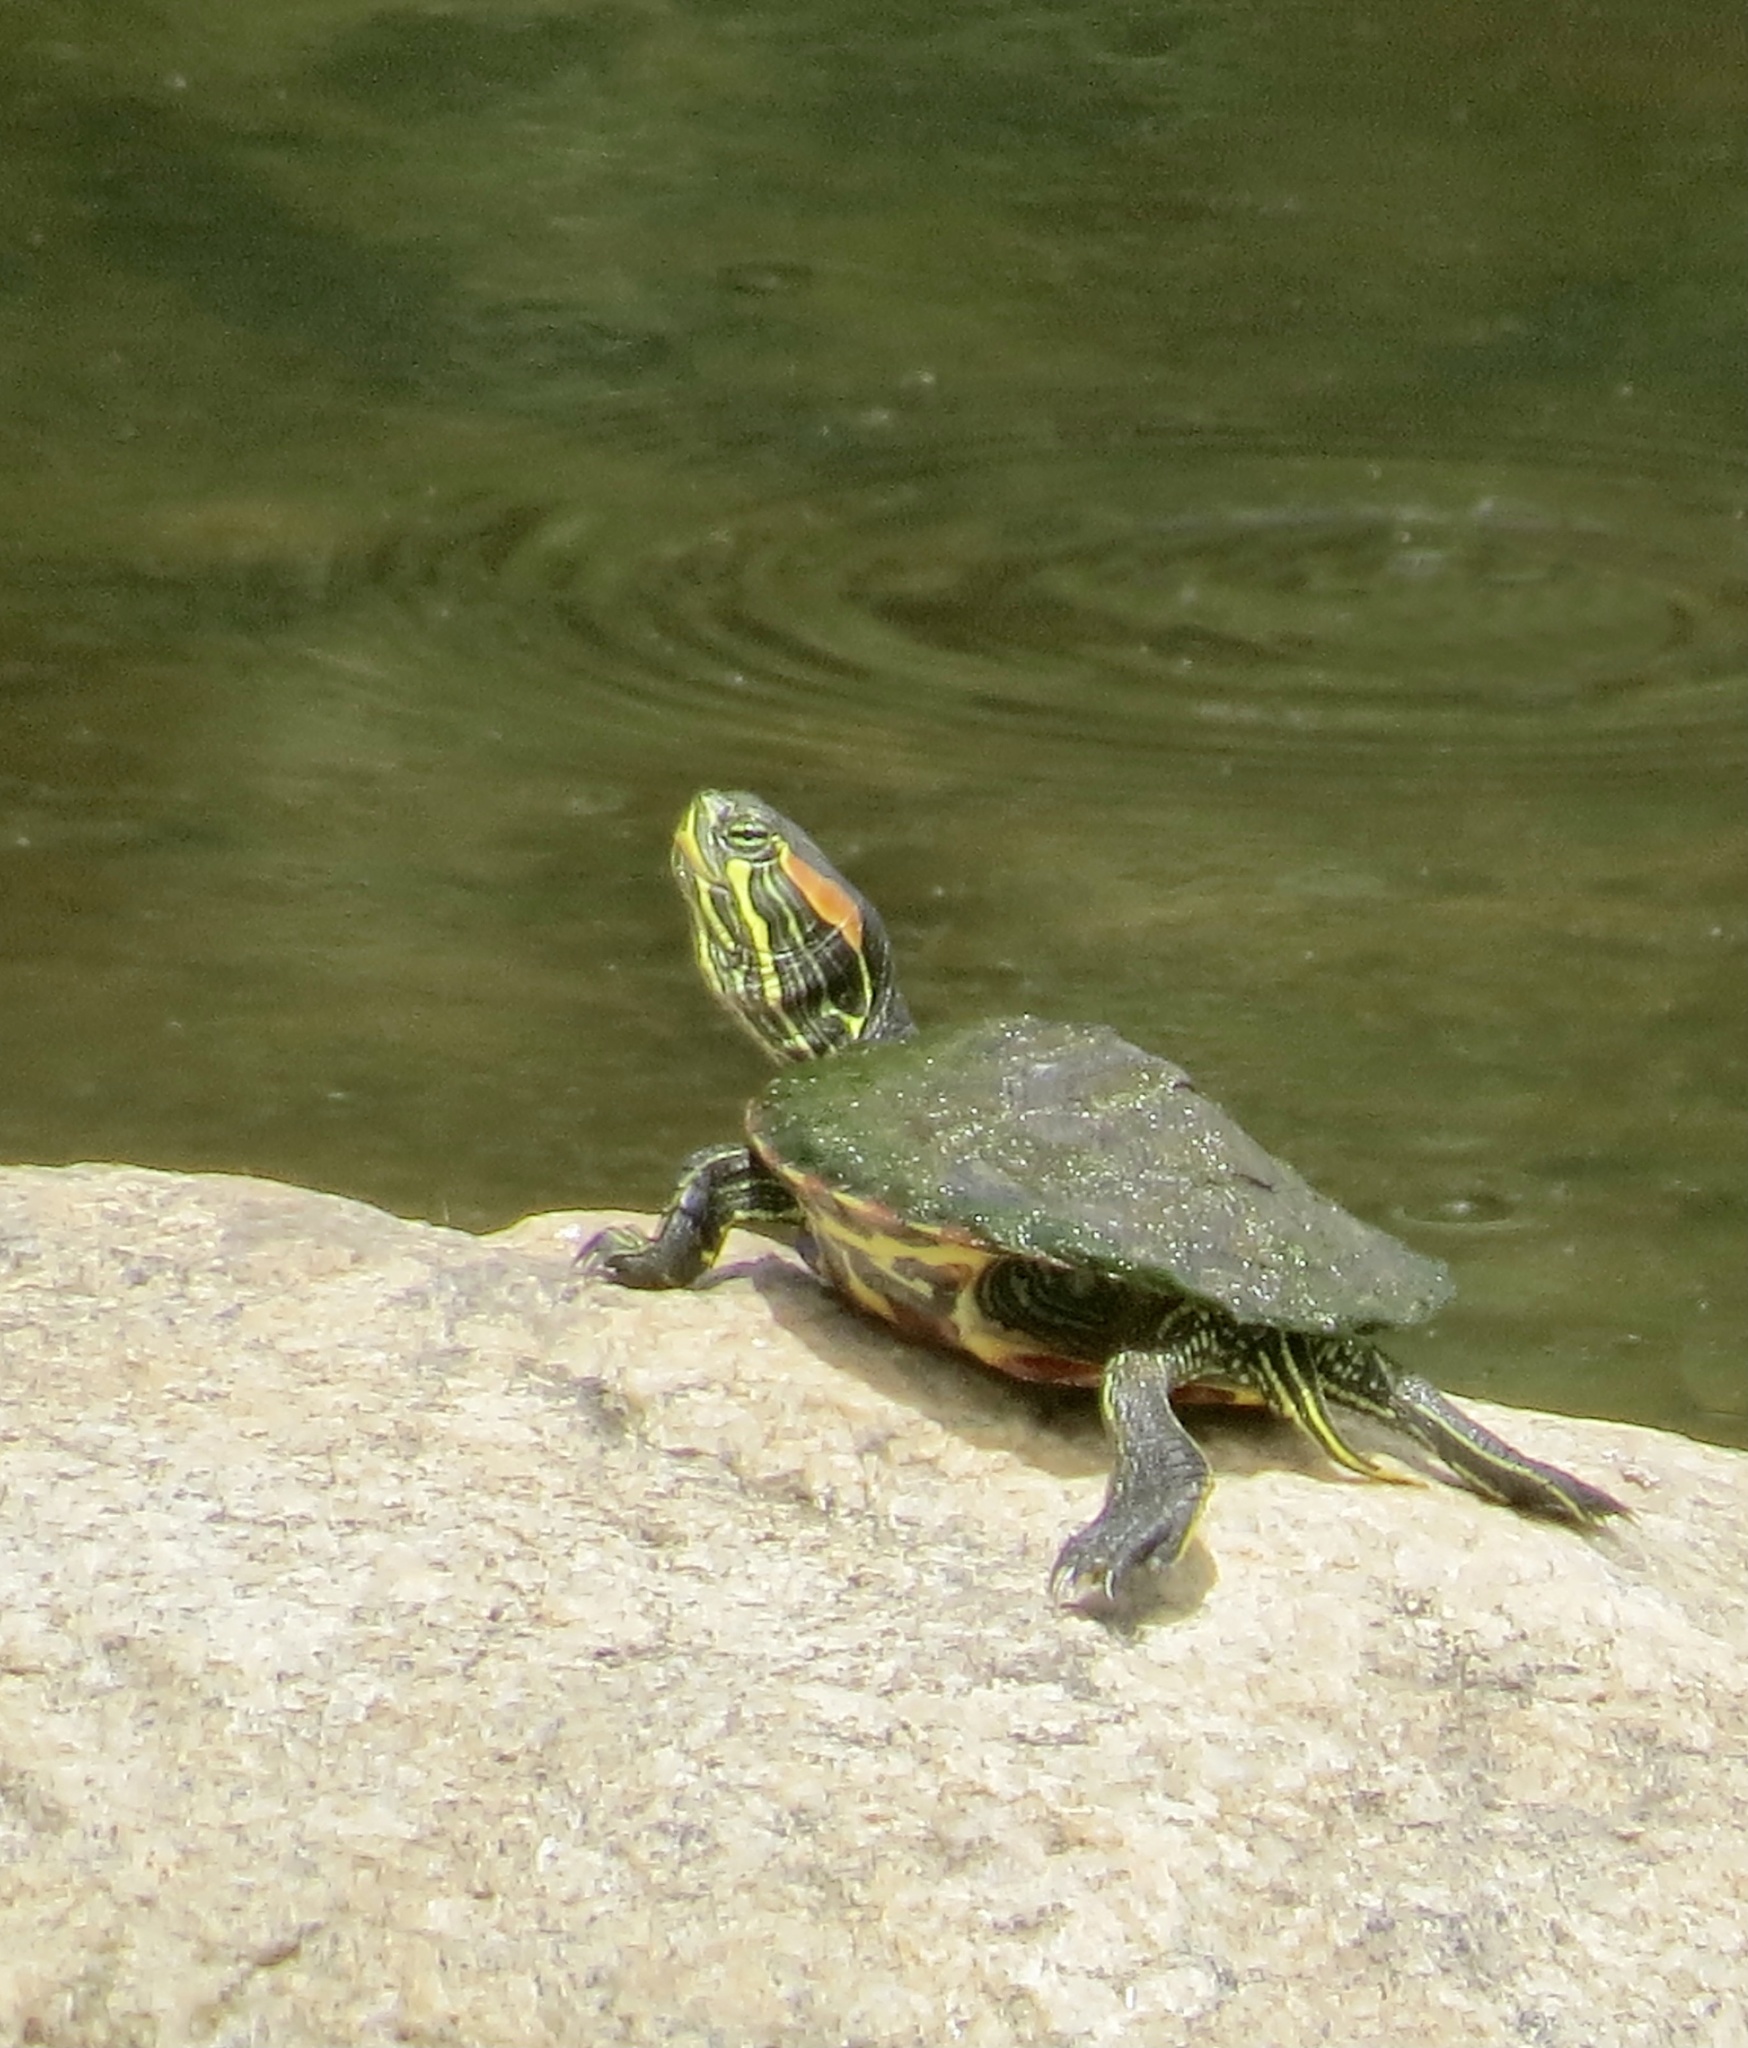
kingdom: Animalia
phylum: Chordata
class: Testudines
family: Emydidae
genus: Trachemys
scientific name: Trachemys scripta
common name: Slider
